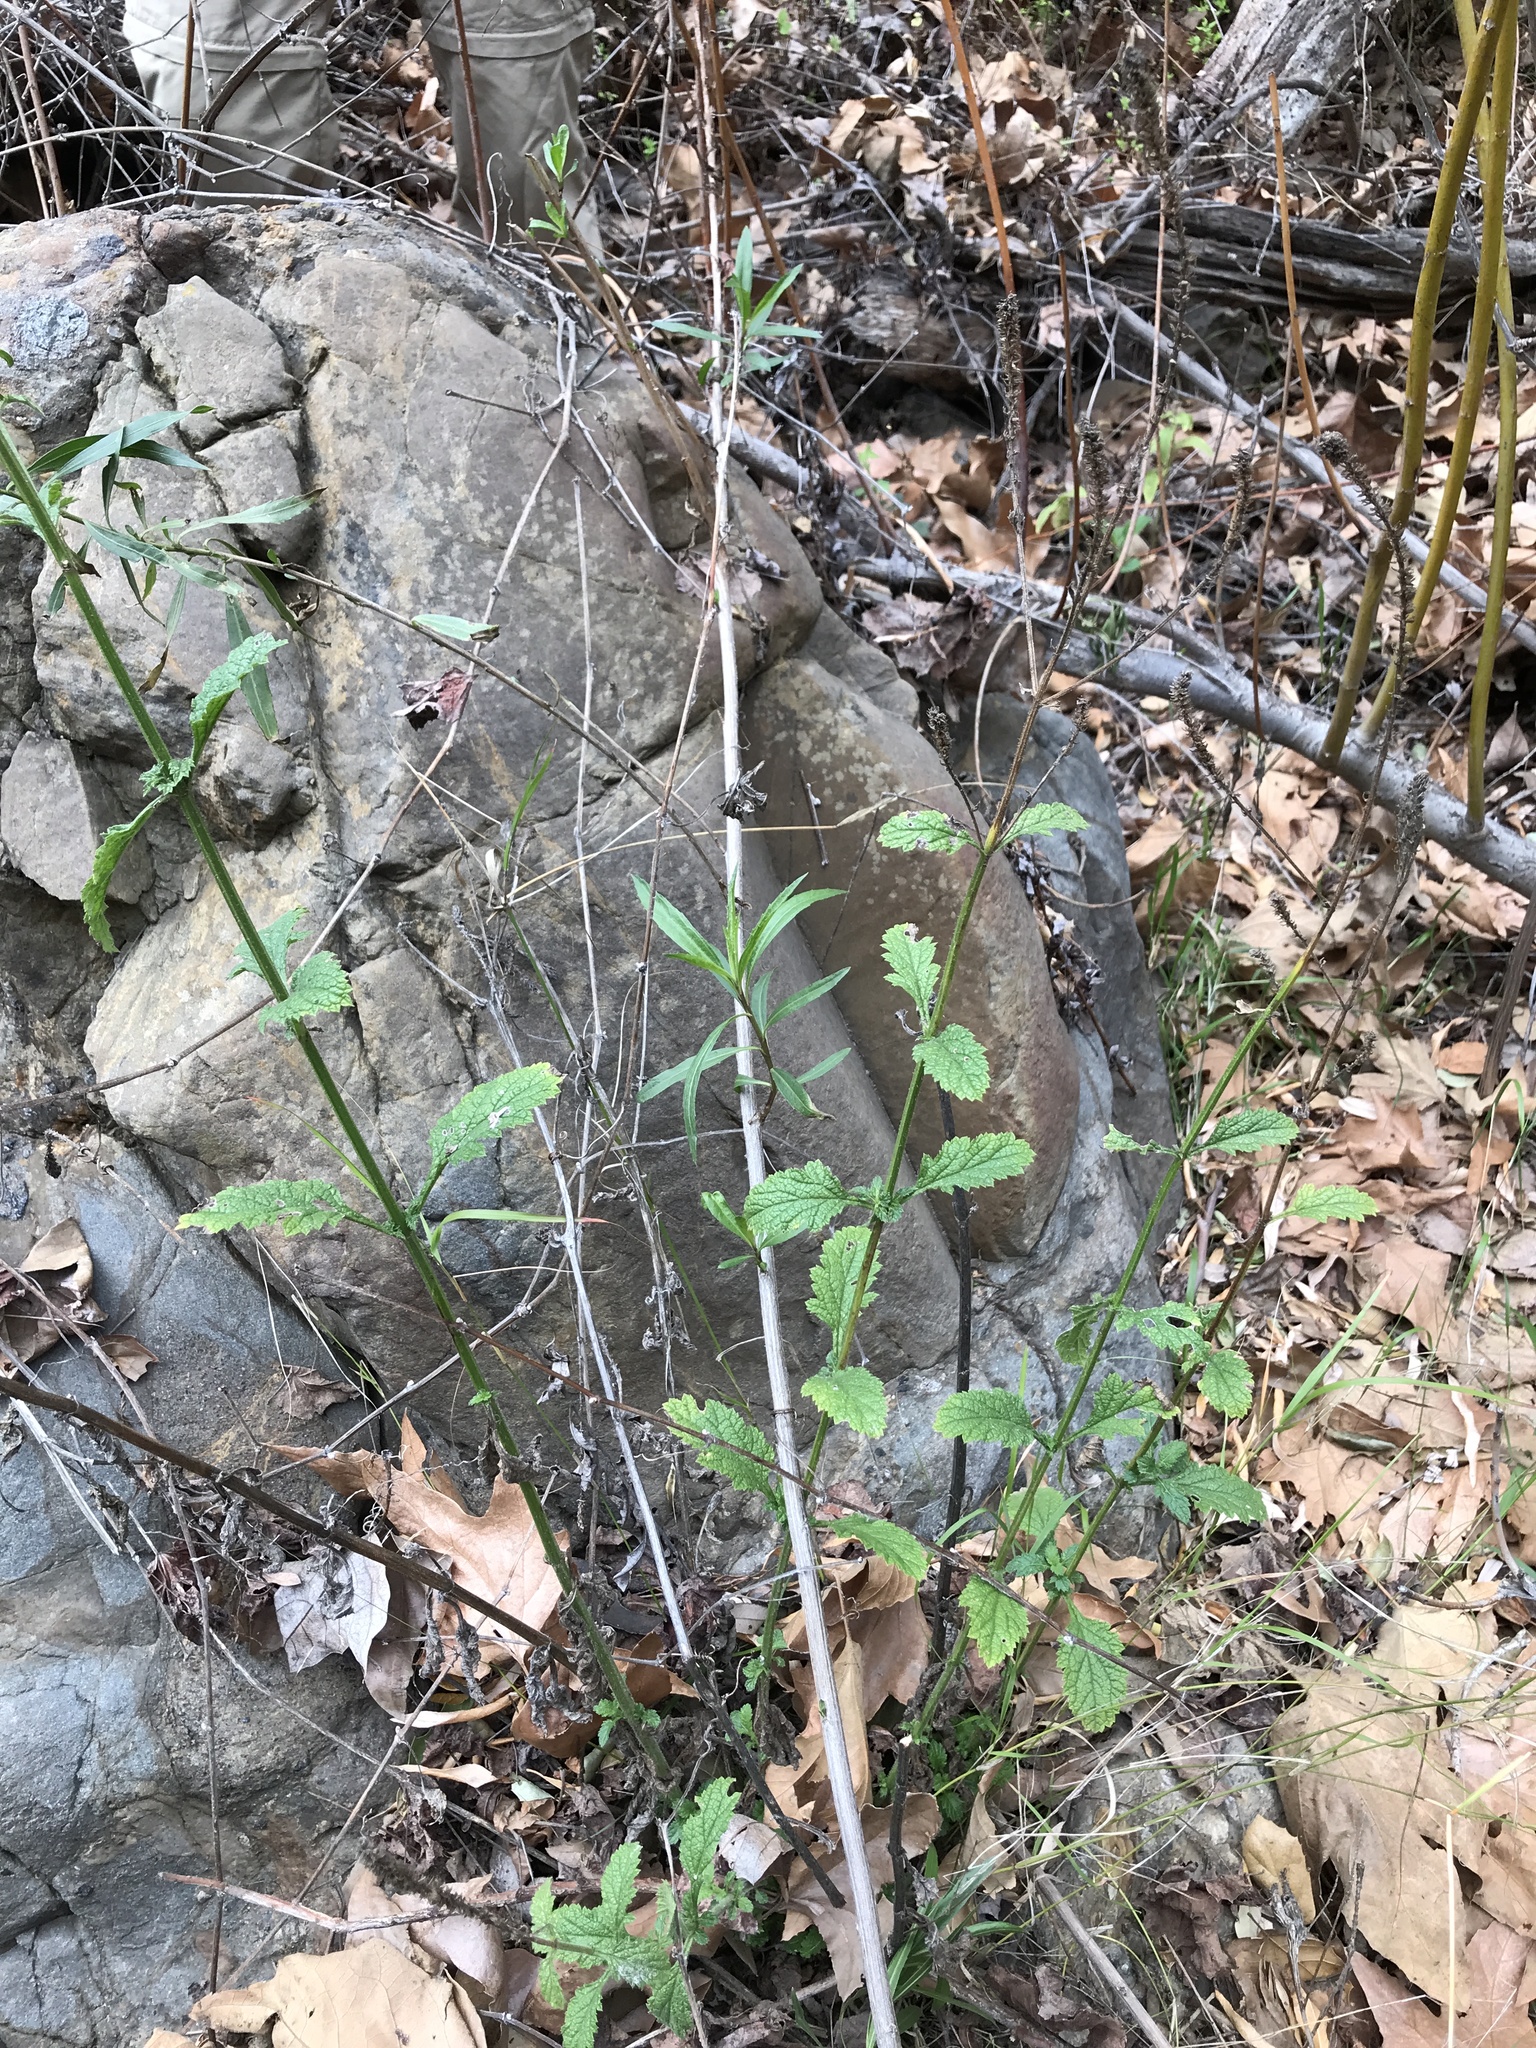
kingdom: Plantae
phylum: Tracheophyta
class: Magnoliopsida
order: Lamiales
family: Verbenaceae
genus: Verbena
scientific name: Verbena lasiostachys
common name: Vervain
